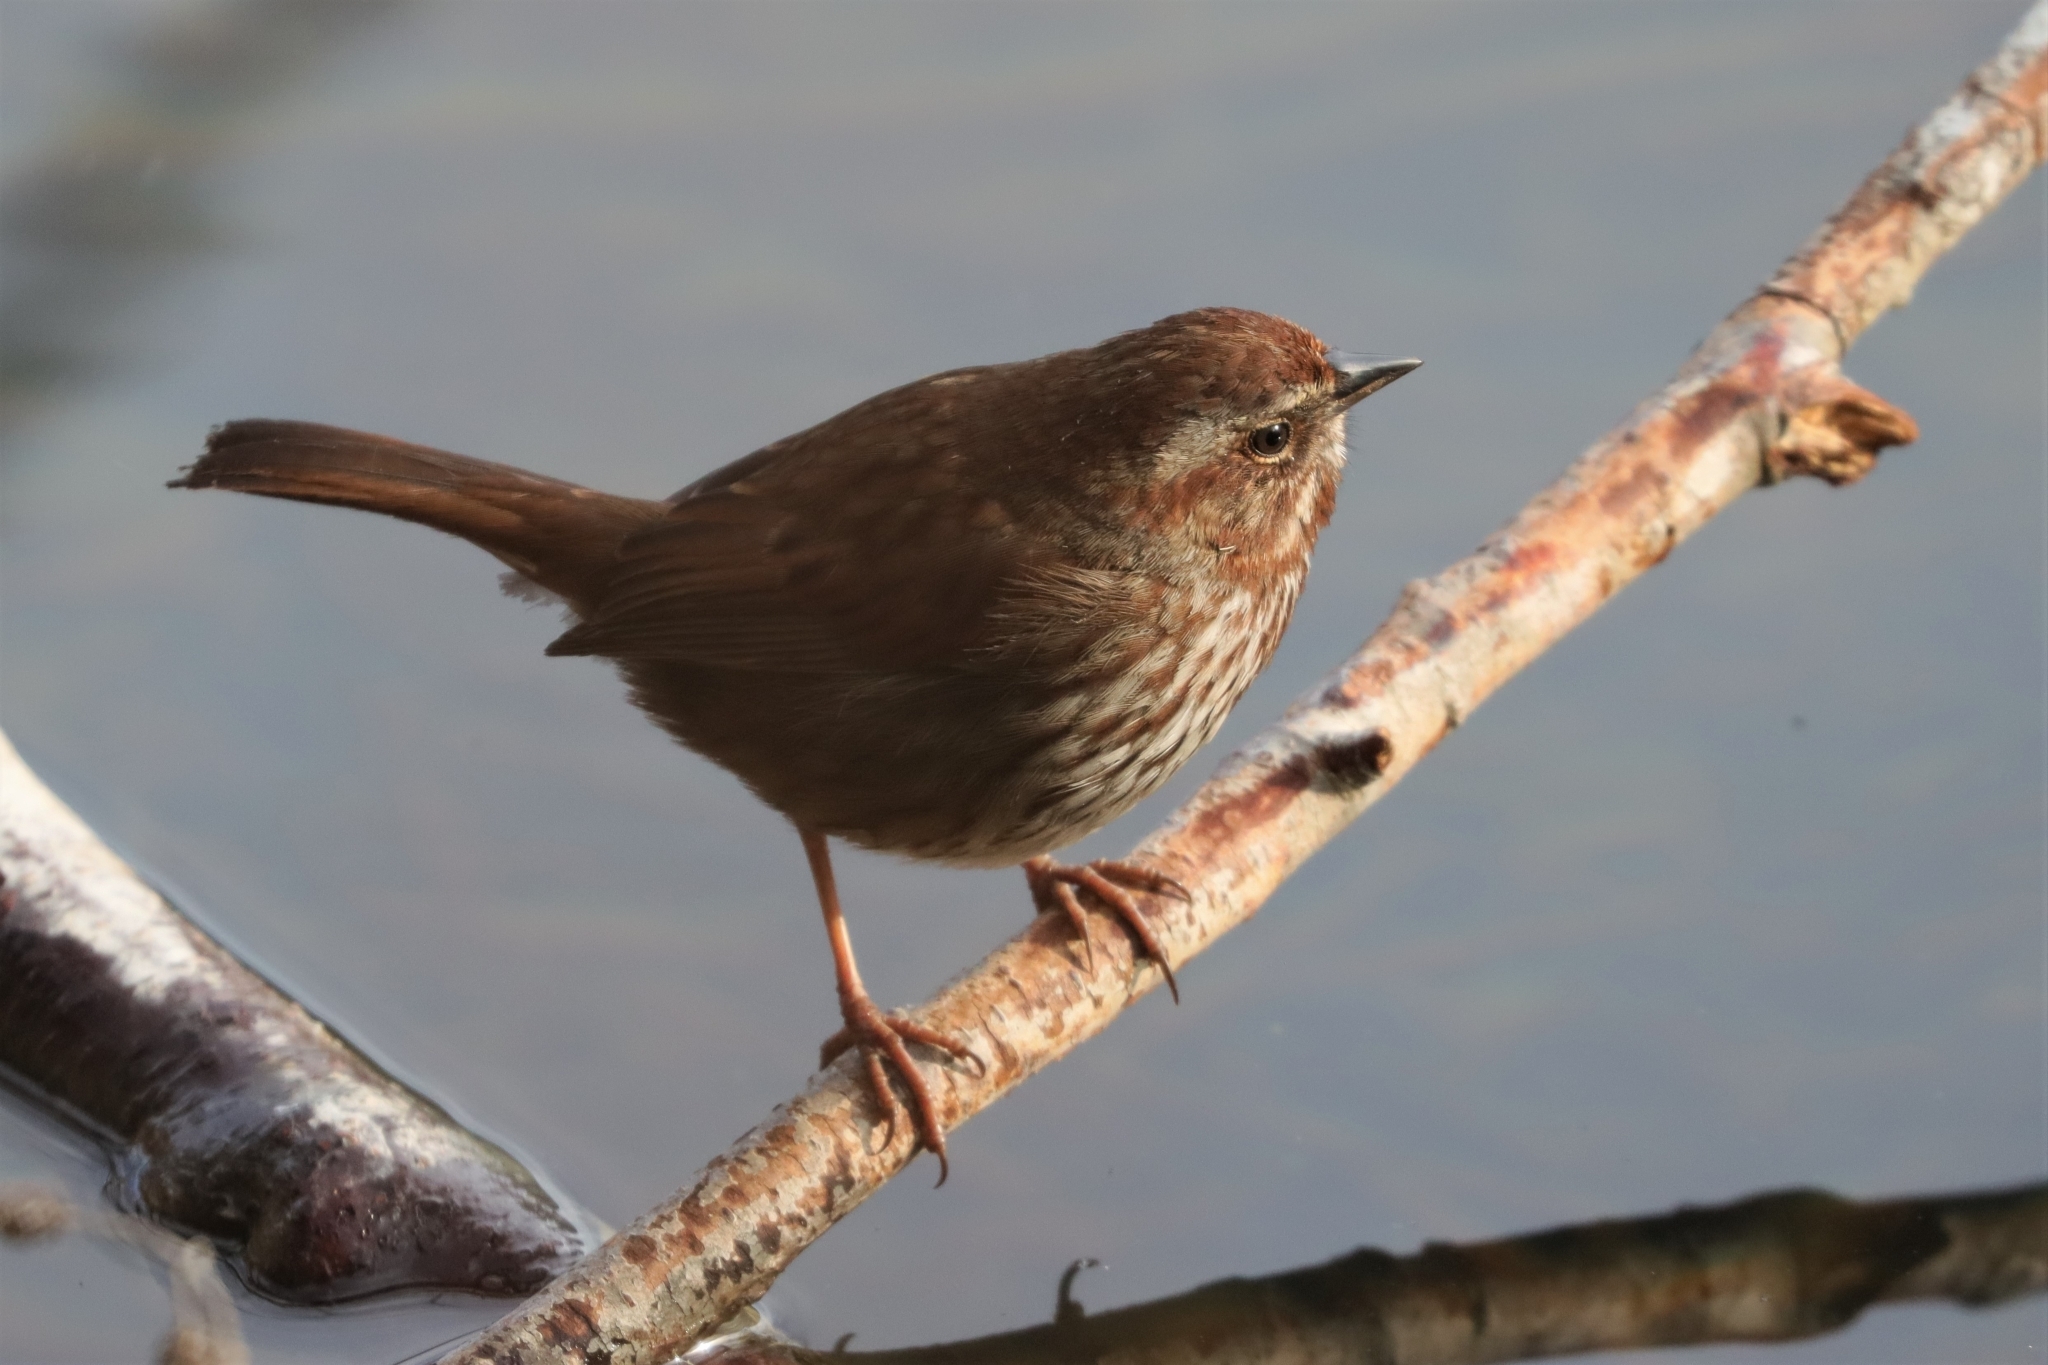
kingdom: Animalia
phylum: Chordata
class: Aves
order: Passeriformes
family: Passerellidae
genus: Melospiza
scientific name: Melospiza melodia
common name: Song sparrow
